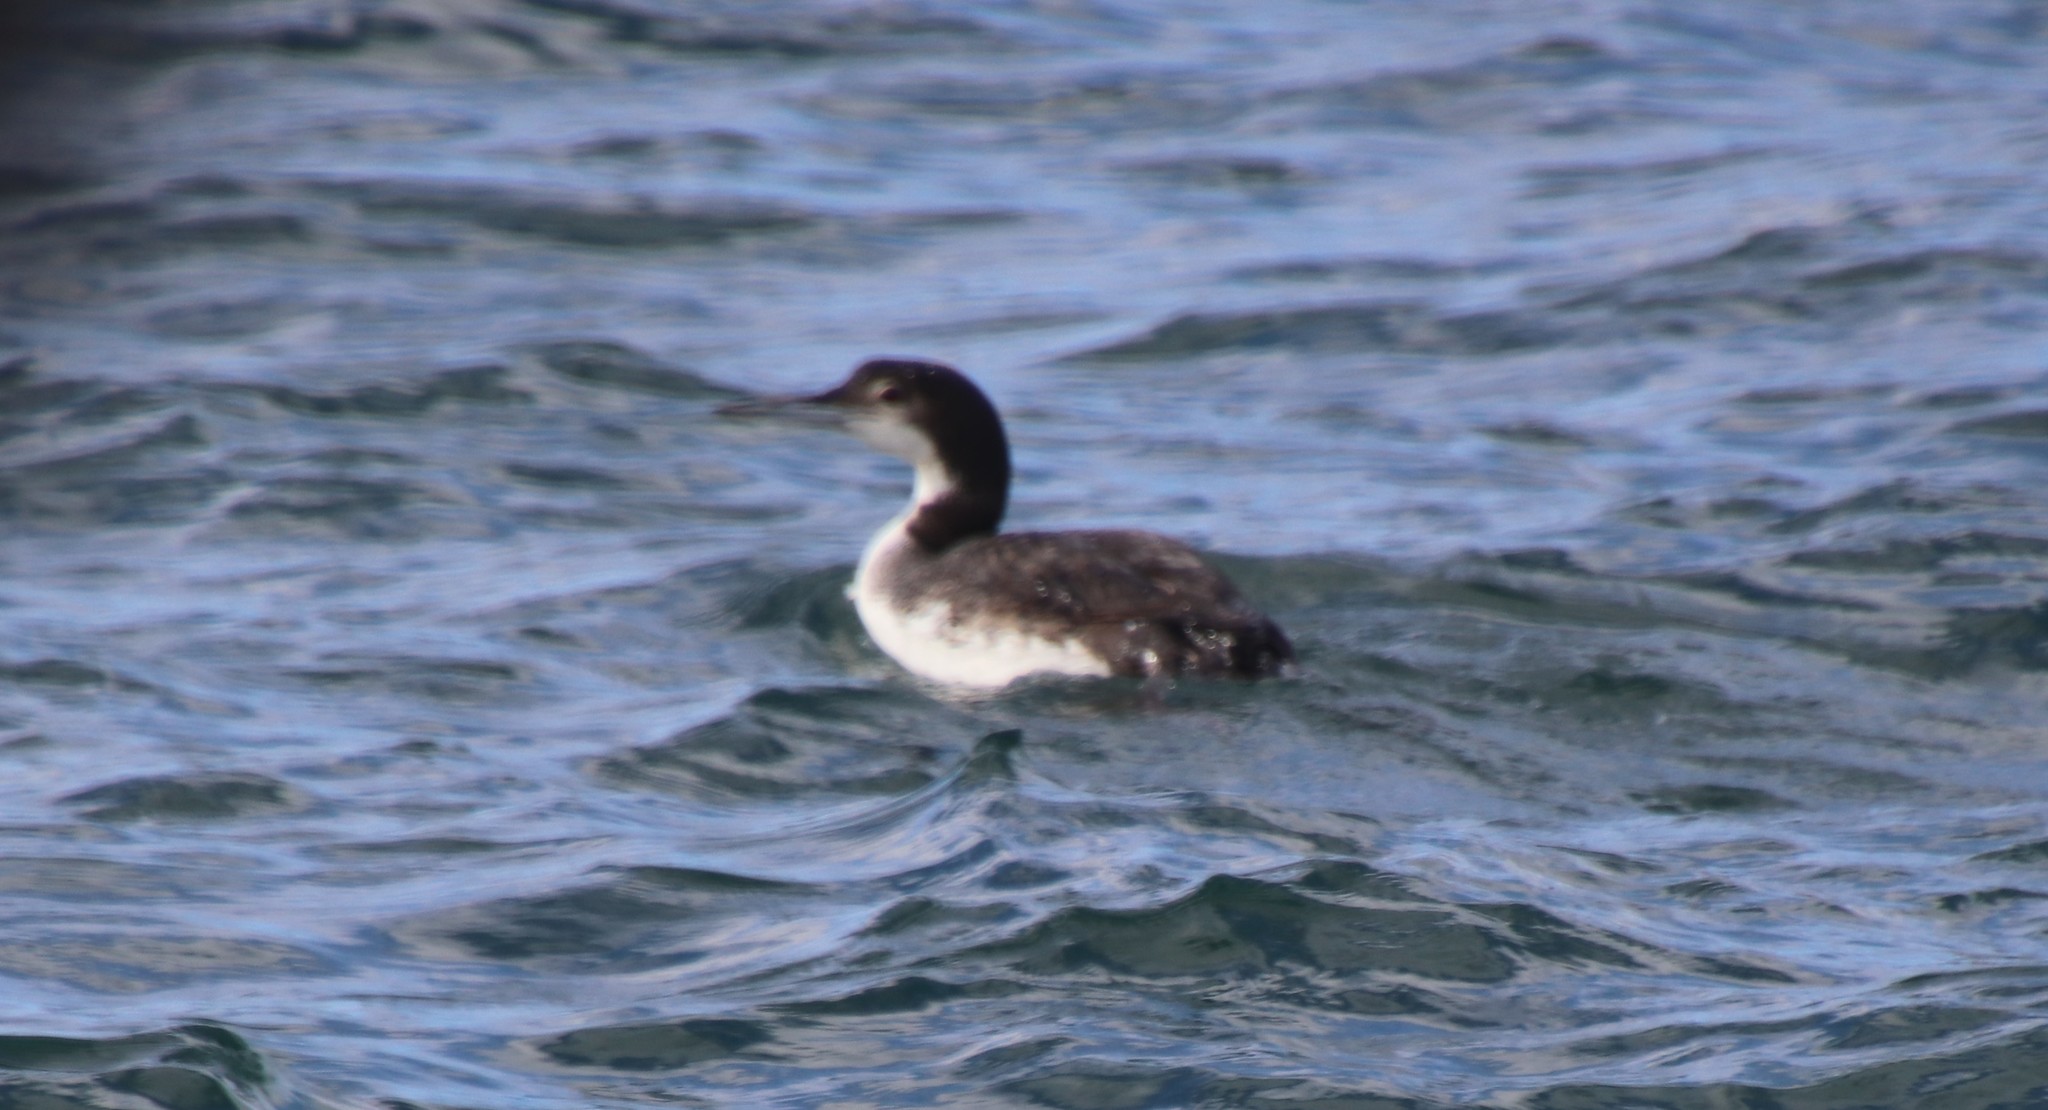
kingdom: Animalia
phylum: Chordata
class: Aves
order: Gaviiformes
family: Gaviidae
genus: Gavia
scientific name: Gavia immer
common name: Common loon
